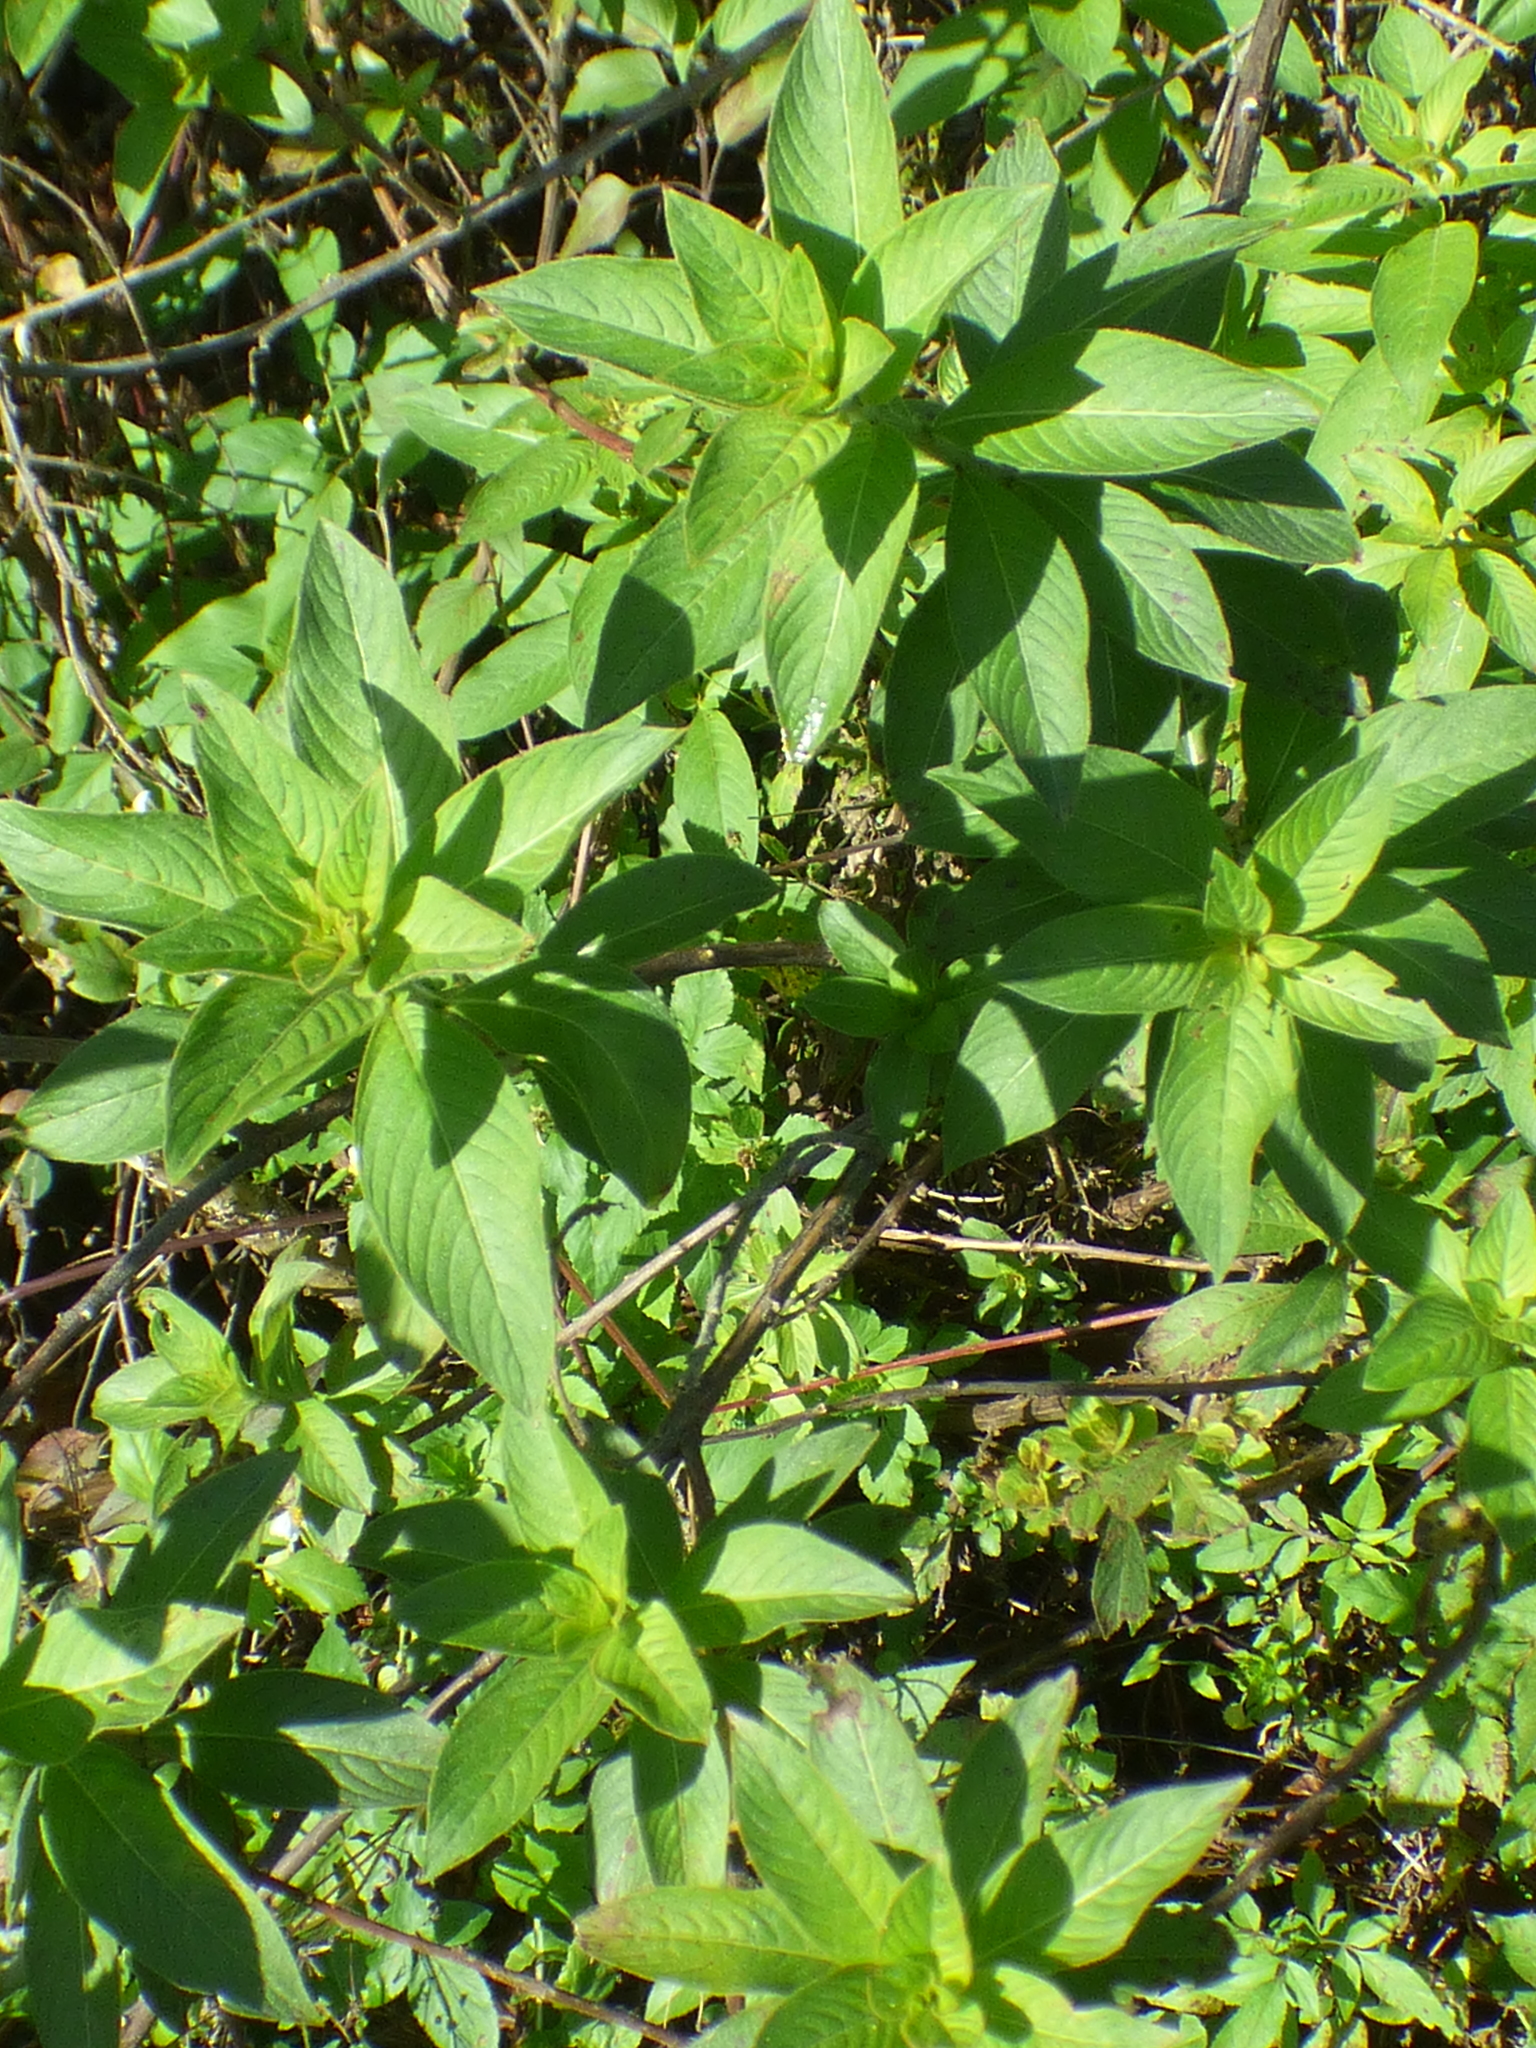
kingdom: Plantae
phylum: Tracheophyta
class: Magnoliopsida
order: Myrtales
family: Onagraceae
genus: Ludwigia
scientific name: Ludwigia peruviana
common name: Peruvian primrose-willow
